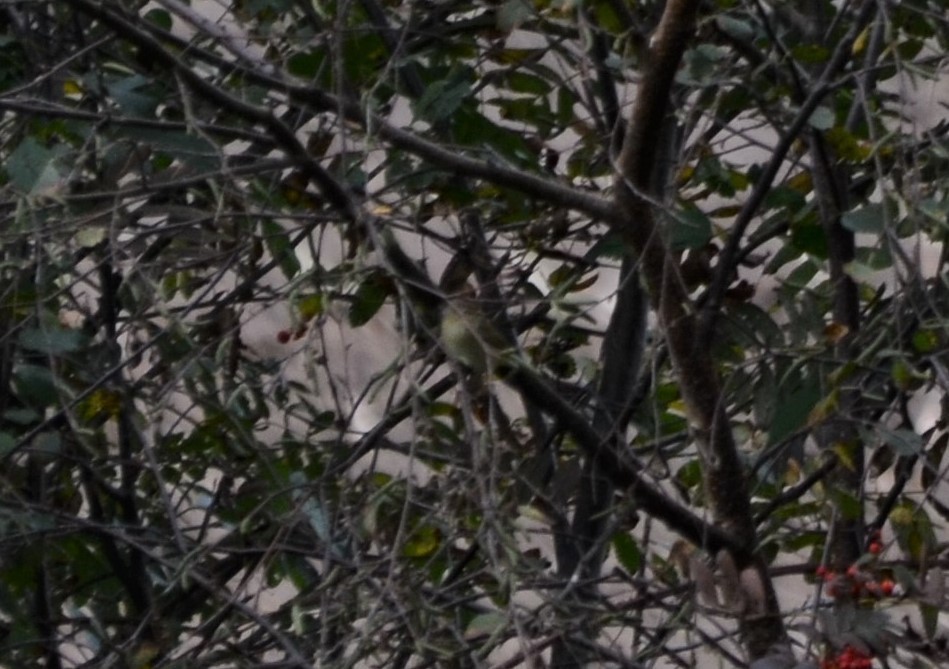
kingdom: Animalia
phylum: Chordata
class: Aves
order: Passeriformes
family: Phylloscopidae
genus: Phylloscopus
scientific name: Phylloscopus collybita
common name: Common chiffchaff
